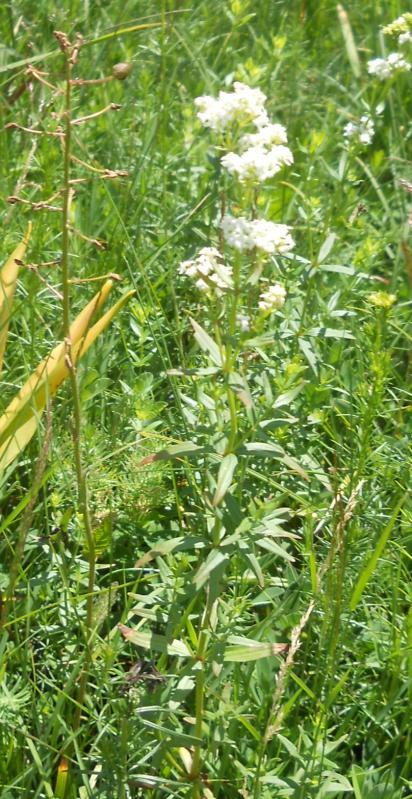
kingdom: Plantae
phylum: Tracheophyta
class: Magnoliopsida
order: Gentianales
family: Rubiaceae
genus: Galium
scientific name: Galium boreale
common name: Northern bedstraw
